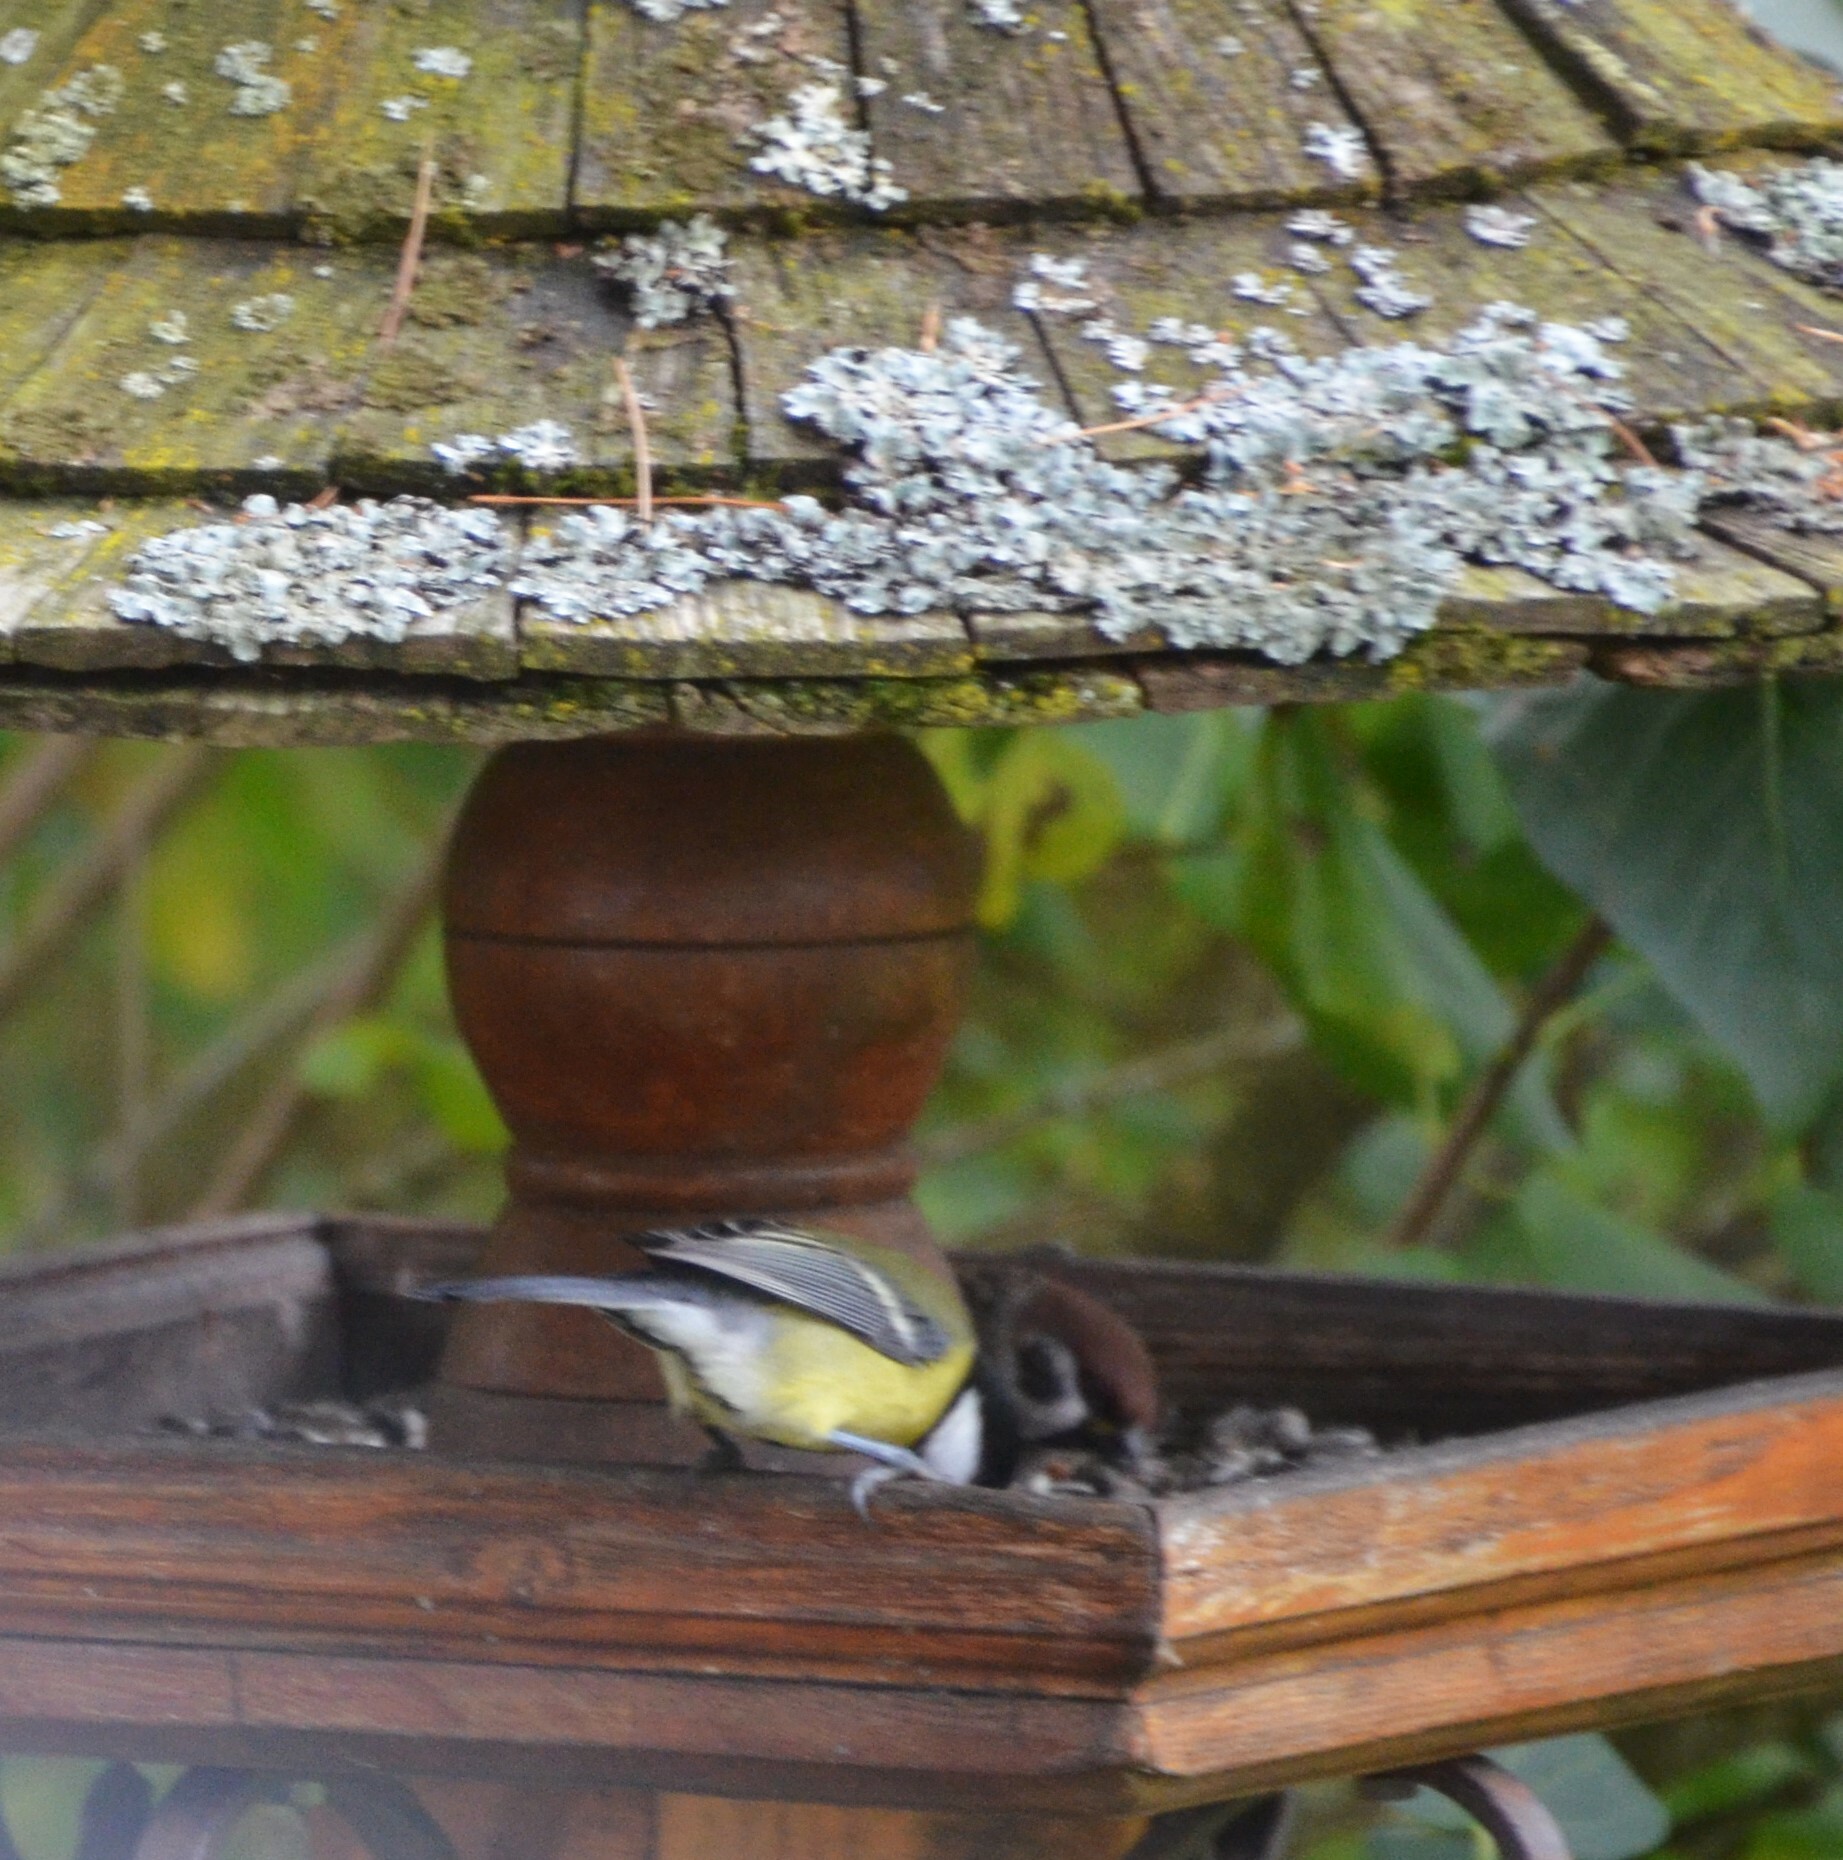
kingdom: Animalia
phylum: Chordata
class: Aves
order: Passeriformes
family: Paridae
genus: Parus
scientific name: Parus major
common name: Great tit
